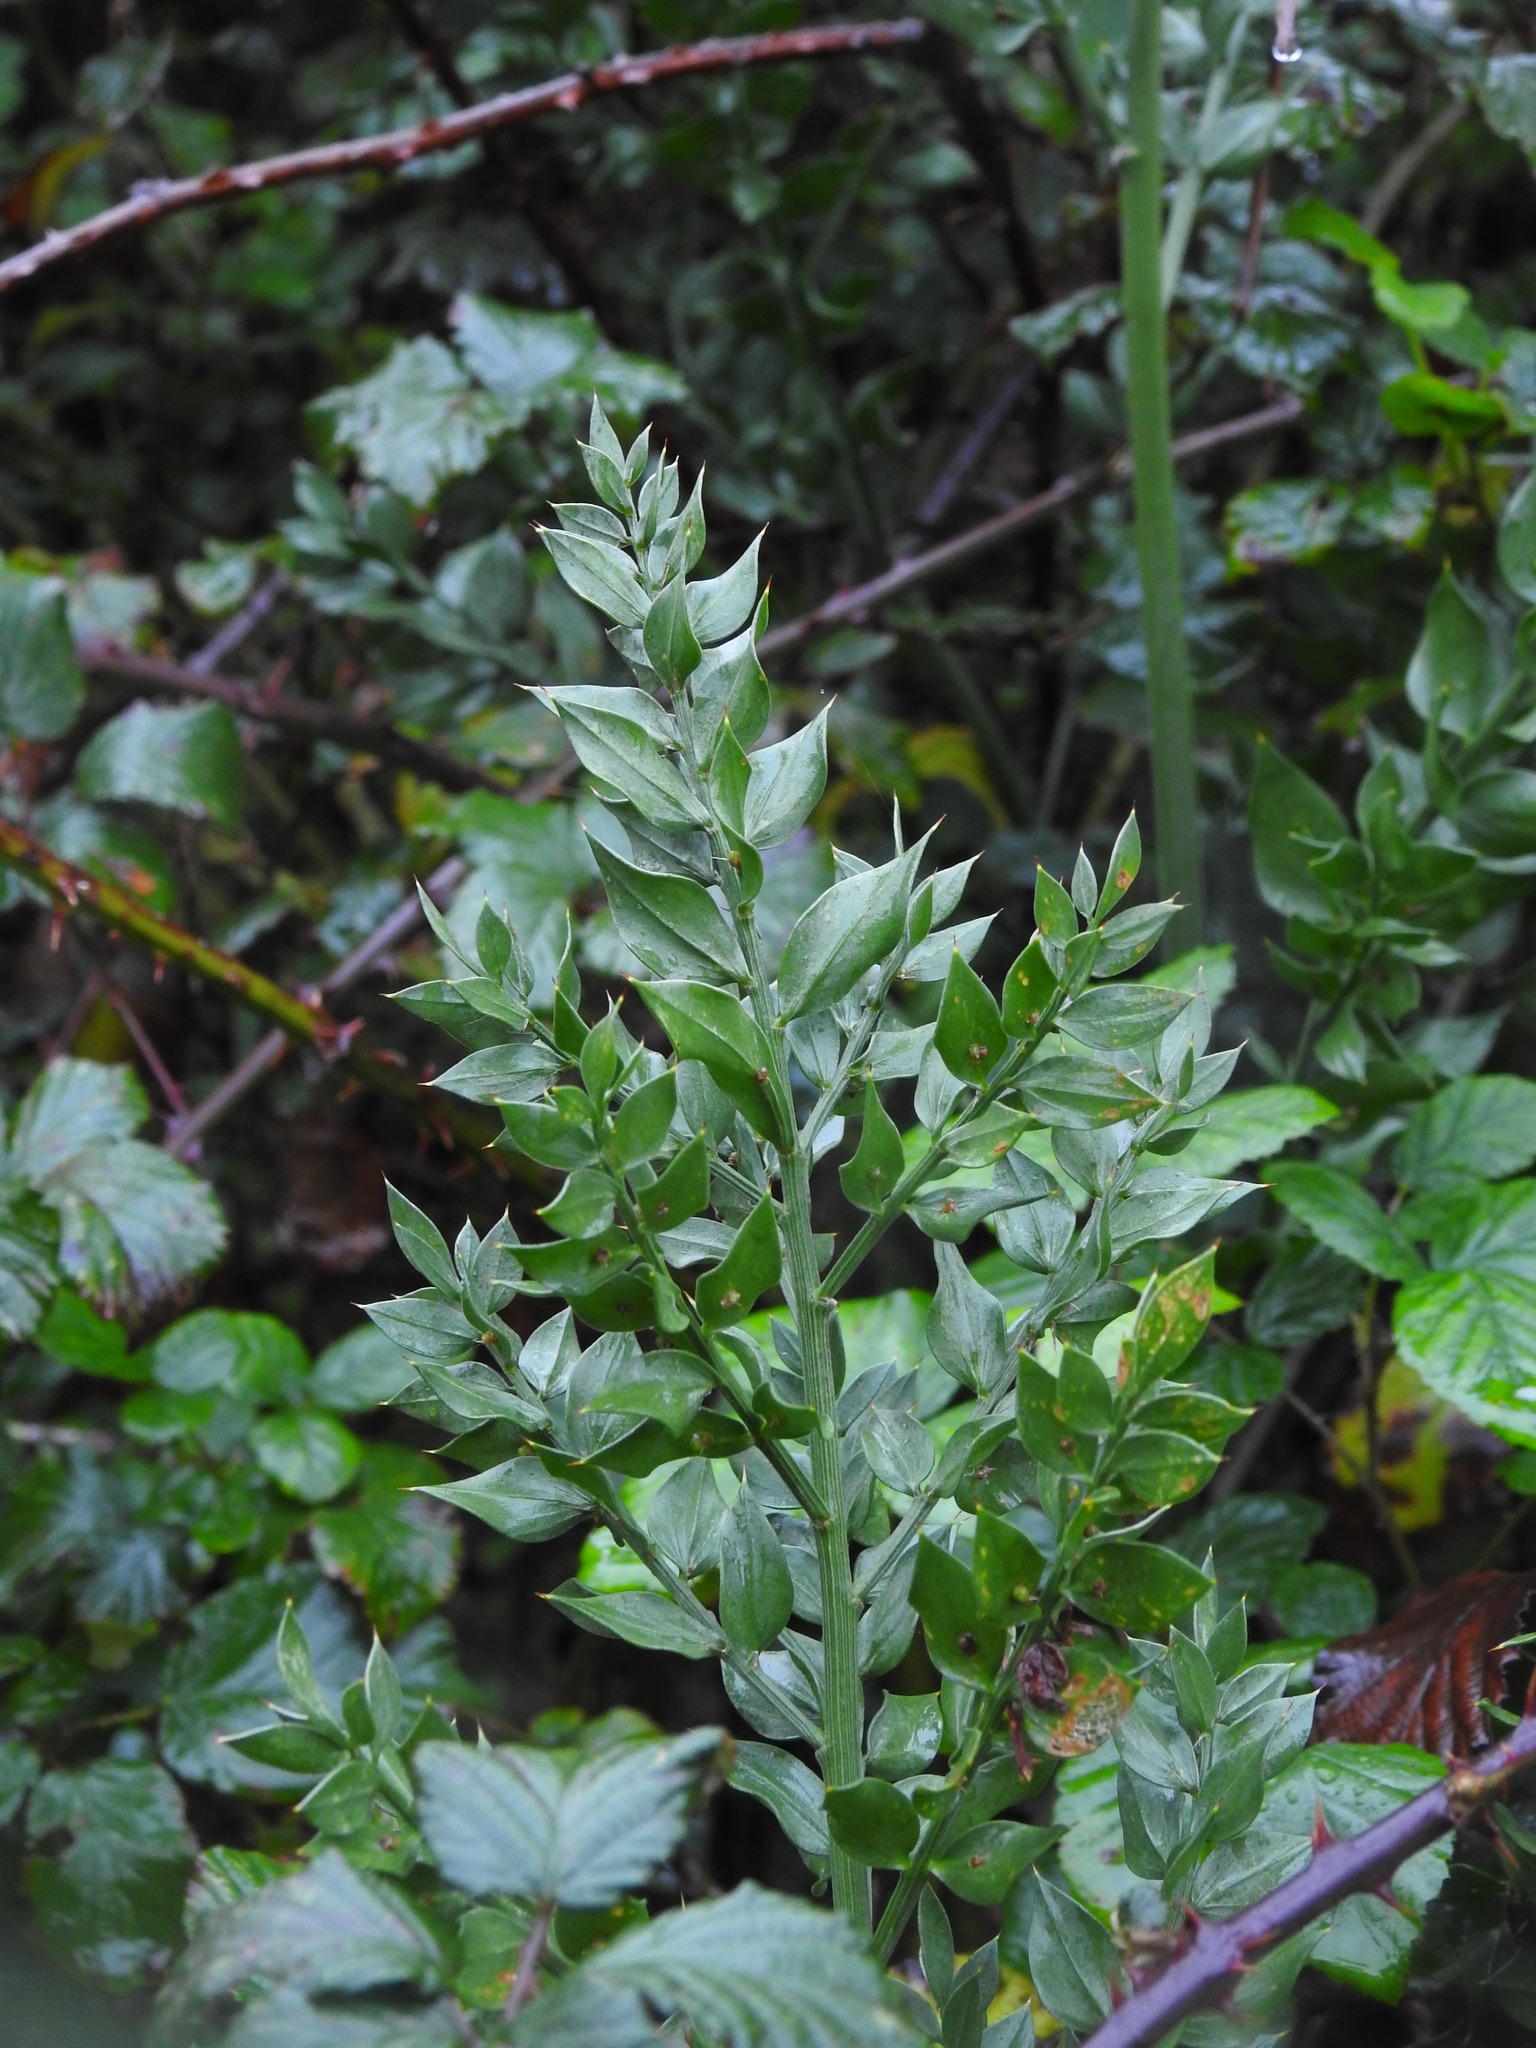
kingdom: Plantae
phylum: Tracheophyta
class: Liliopsida
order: Asparagales
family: Asparagaceae
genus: Ruscus
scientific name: Ruscus aculeatus
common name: Butcher's-broom
